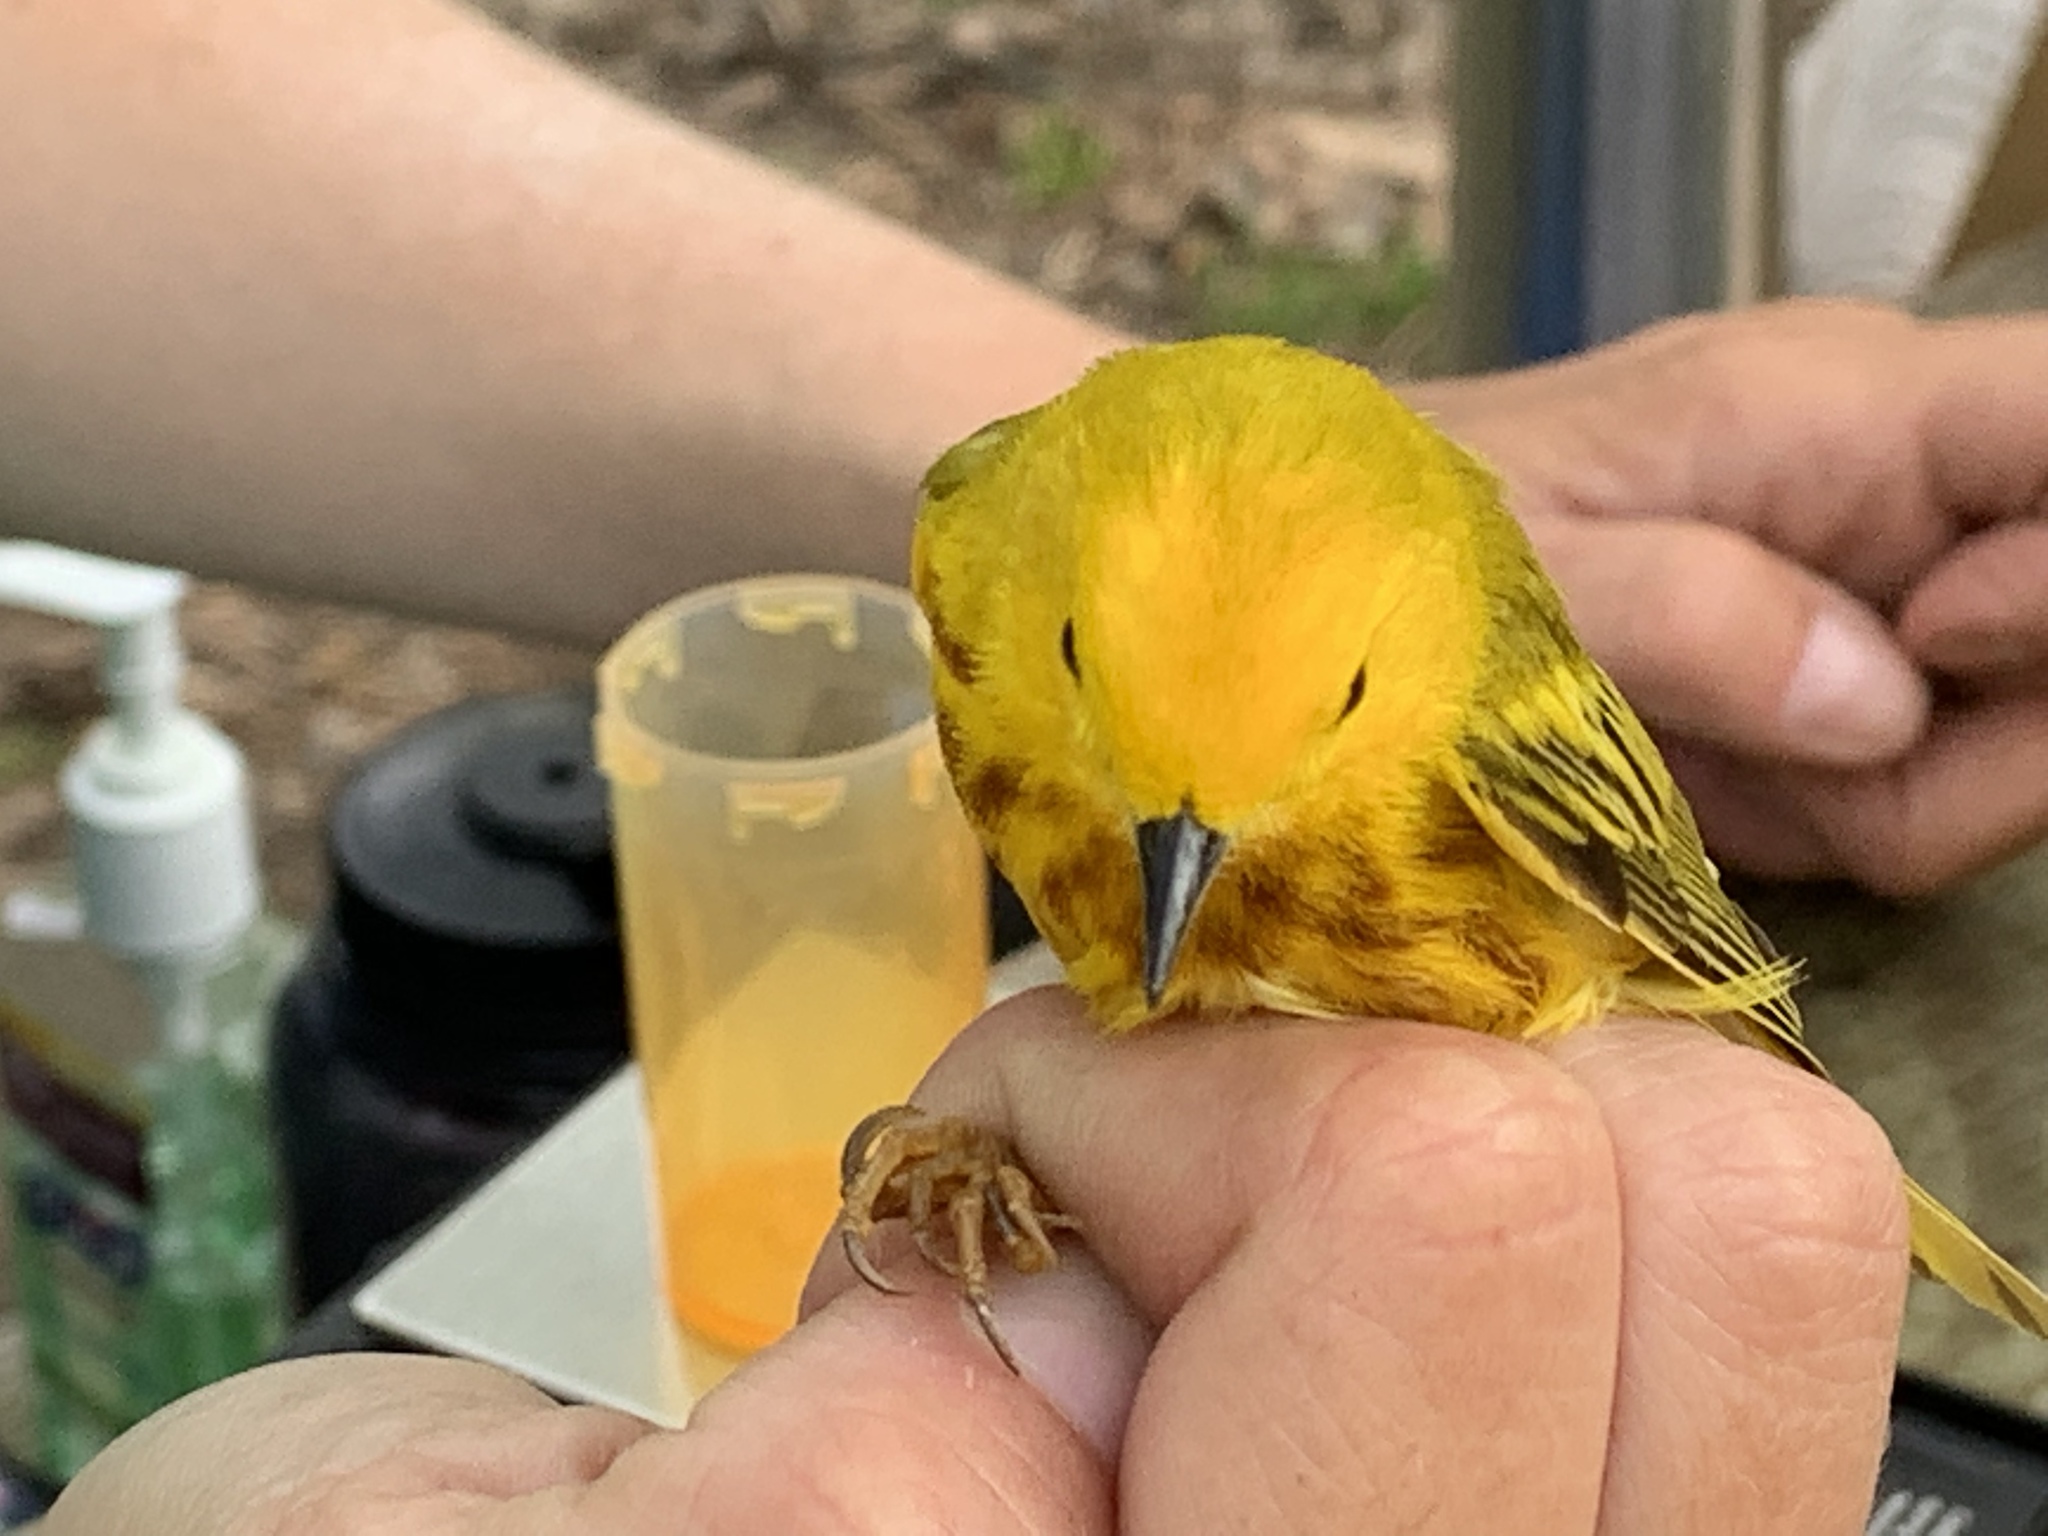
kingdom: Animalia
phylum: Chordata
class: Aves
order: Passeriformes
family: Parulidae
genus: Setophaga
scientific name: Setophaga petechia
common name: Yellow warbler
